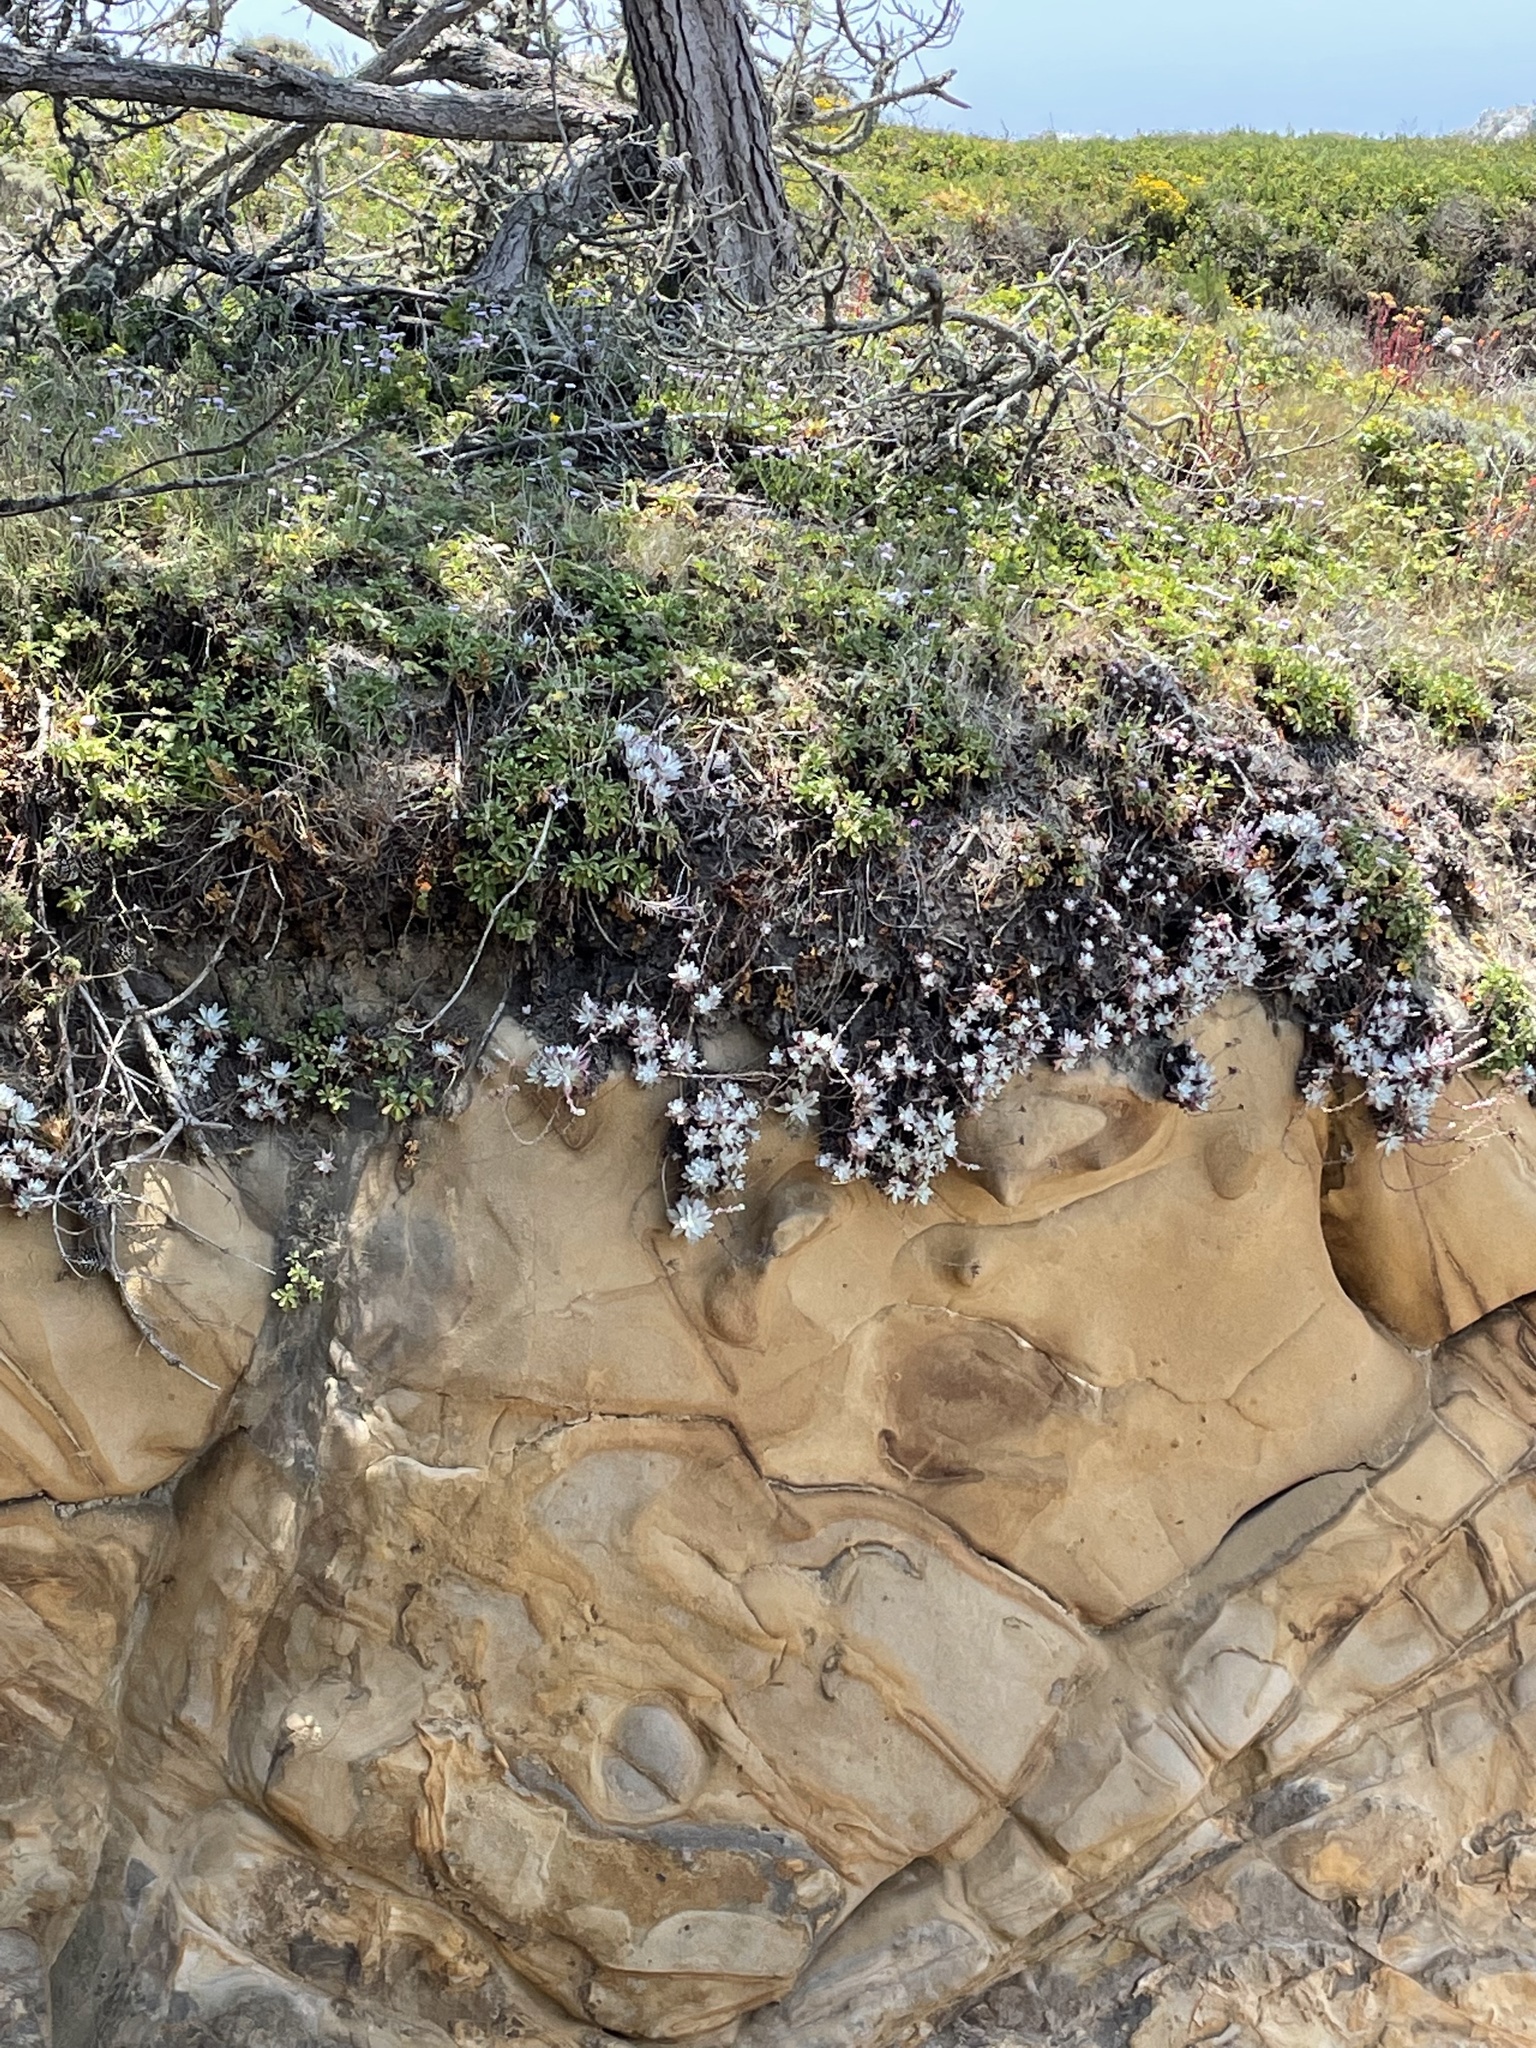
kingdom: Plantae
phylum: Tracheophyta
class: Magnoliopsida
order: Saxifragales
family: Crassulaceae
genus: Dudleya
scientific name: Dudleya farinosa
